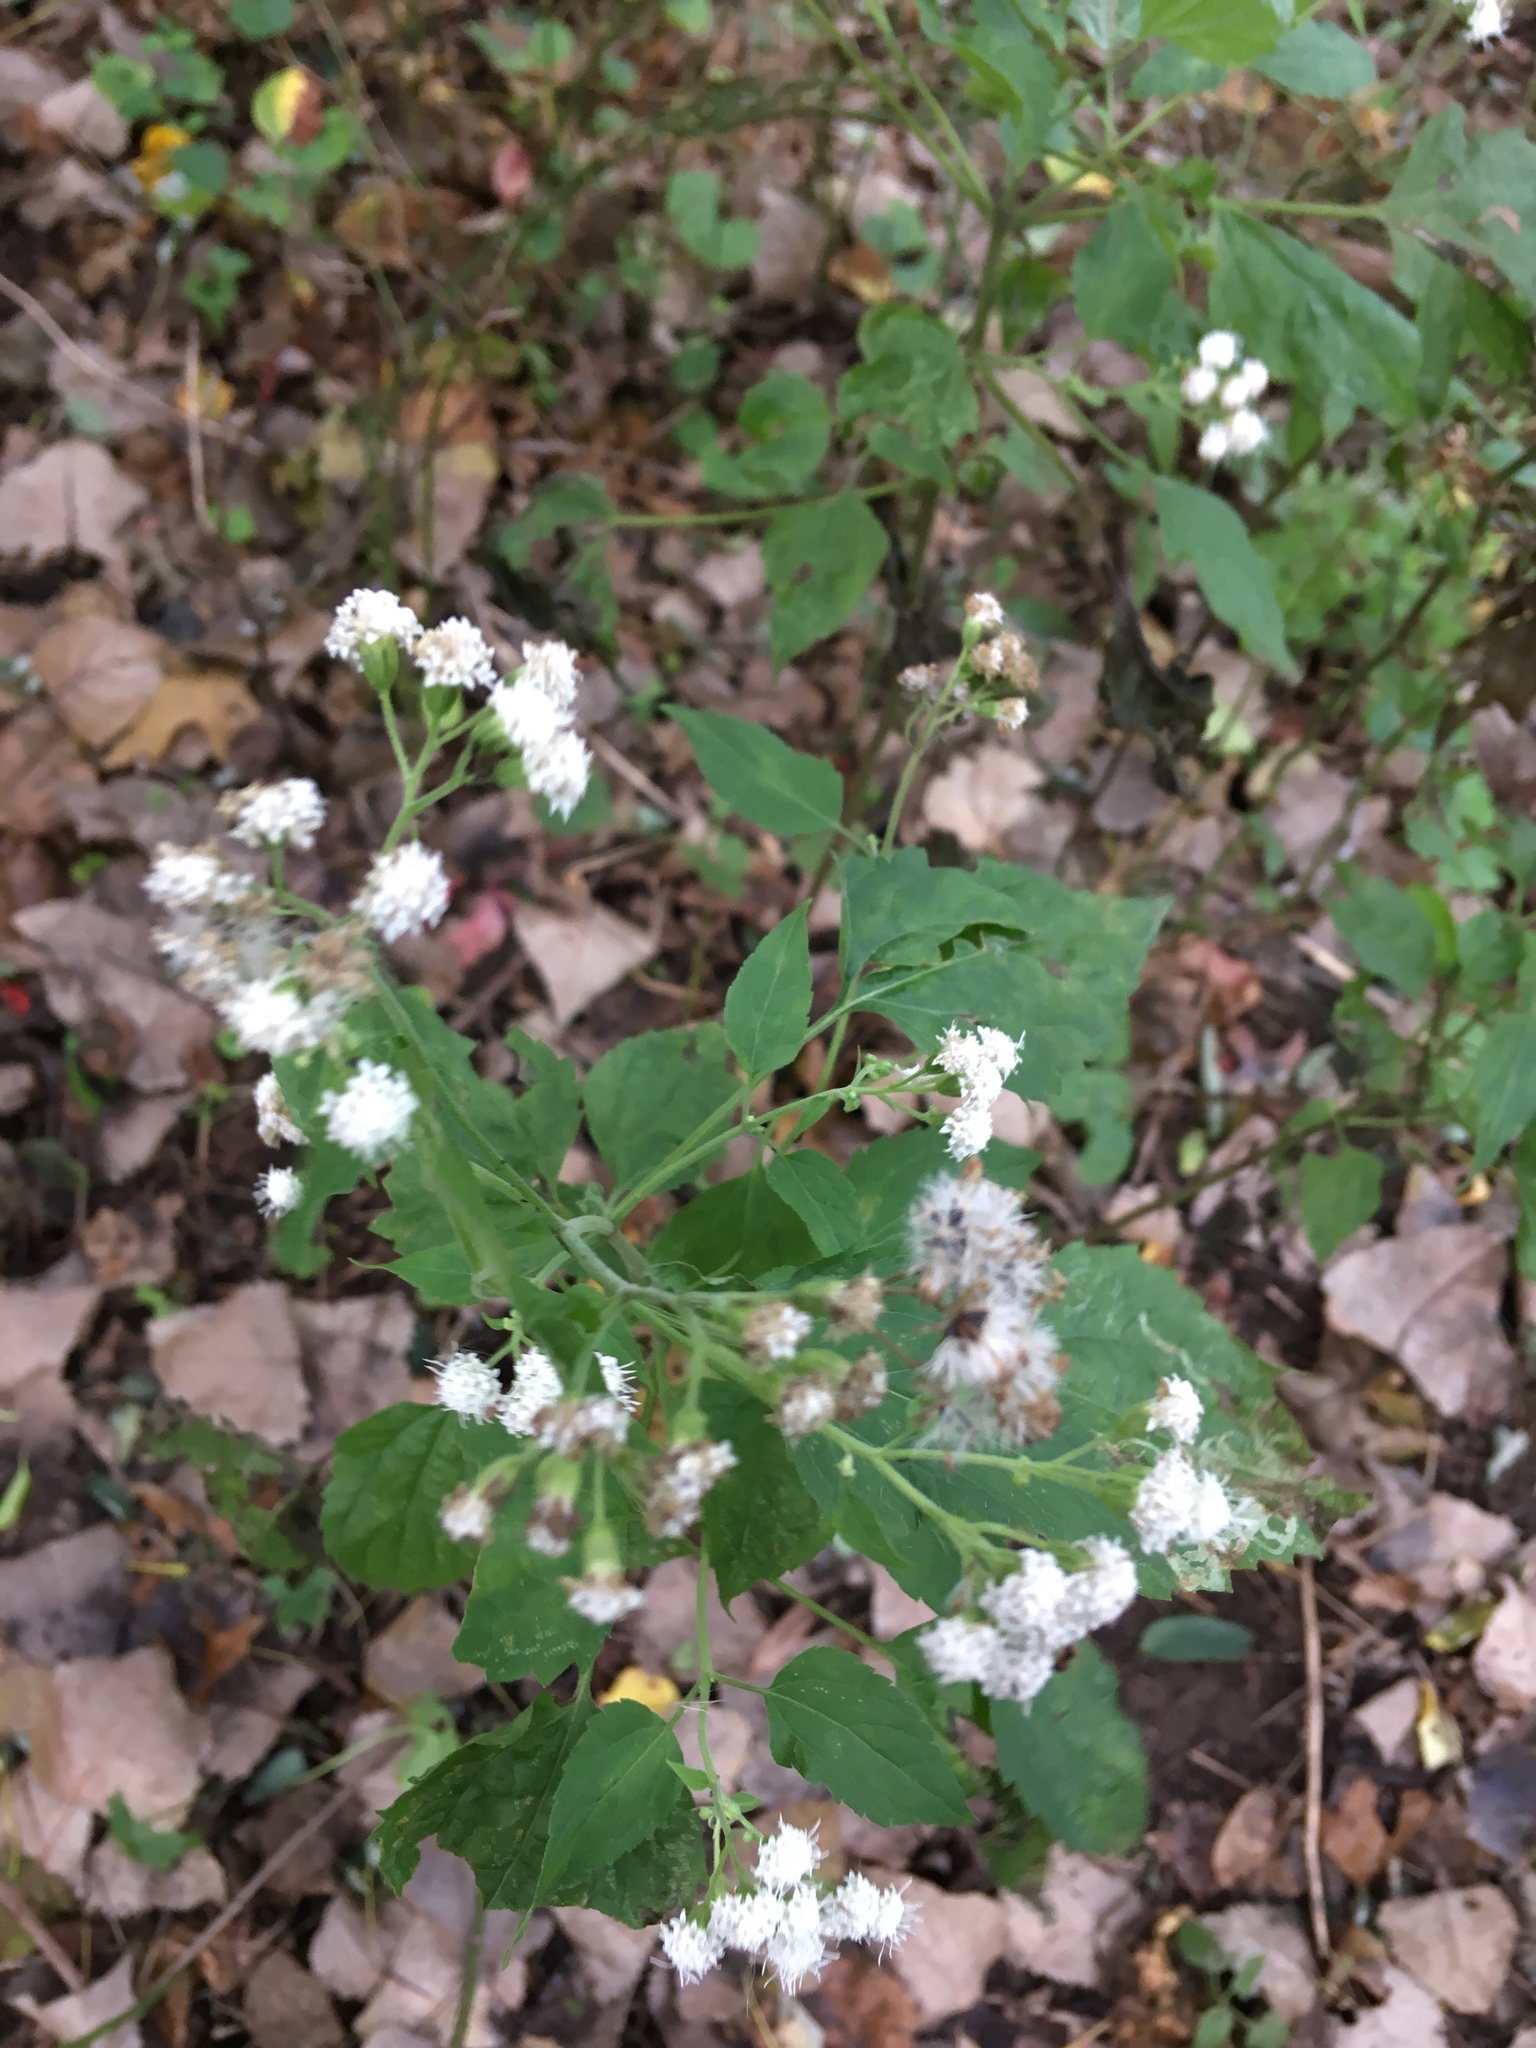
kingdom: Plantae
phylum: Tracheophyta
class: Magnoliopsida
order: Asterales
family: Asteraceae
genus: Ageratina
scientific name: Ageratina altissima
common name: White snakeroot
